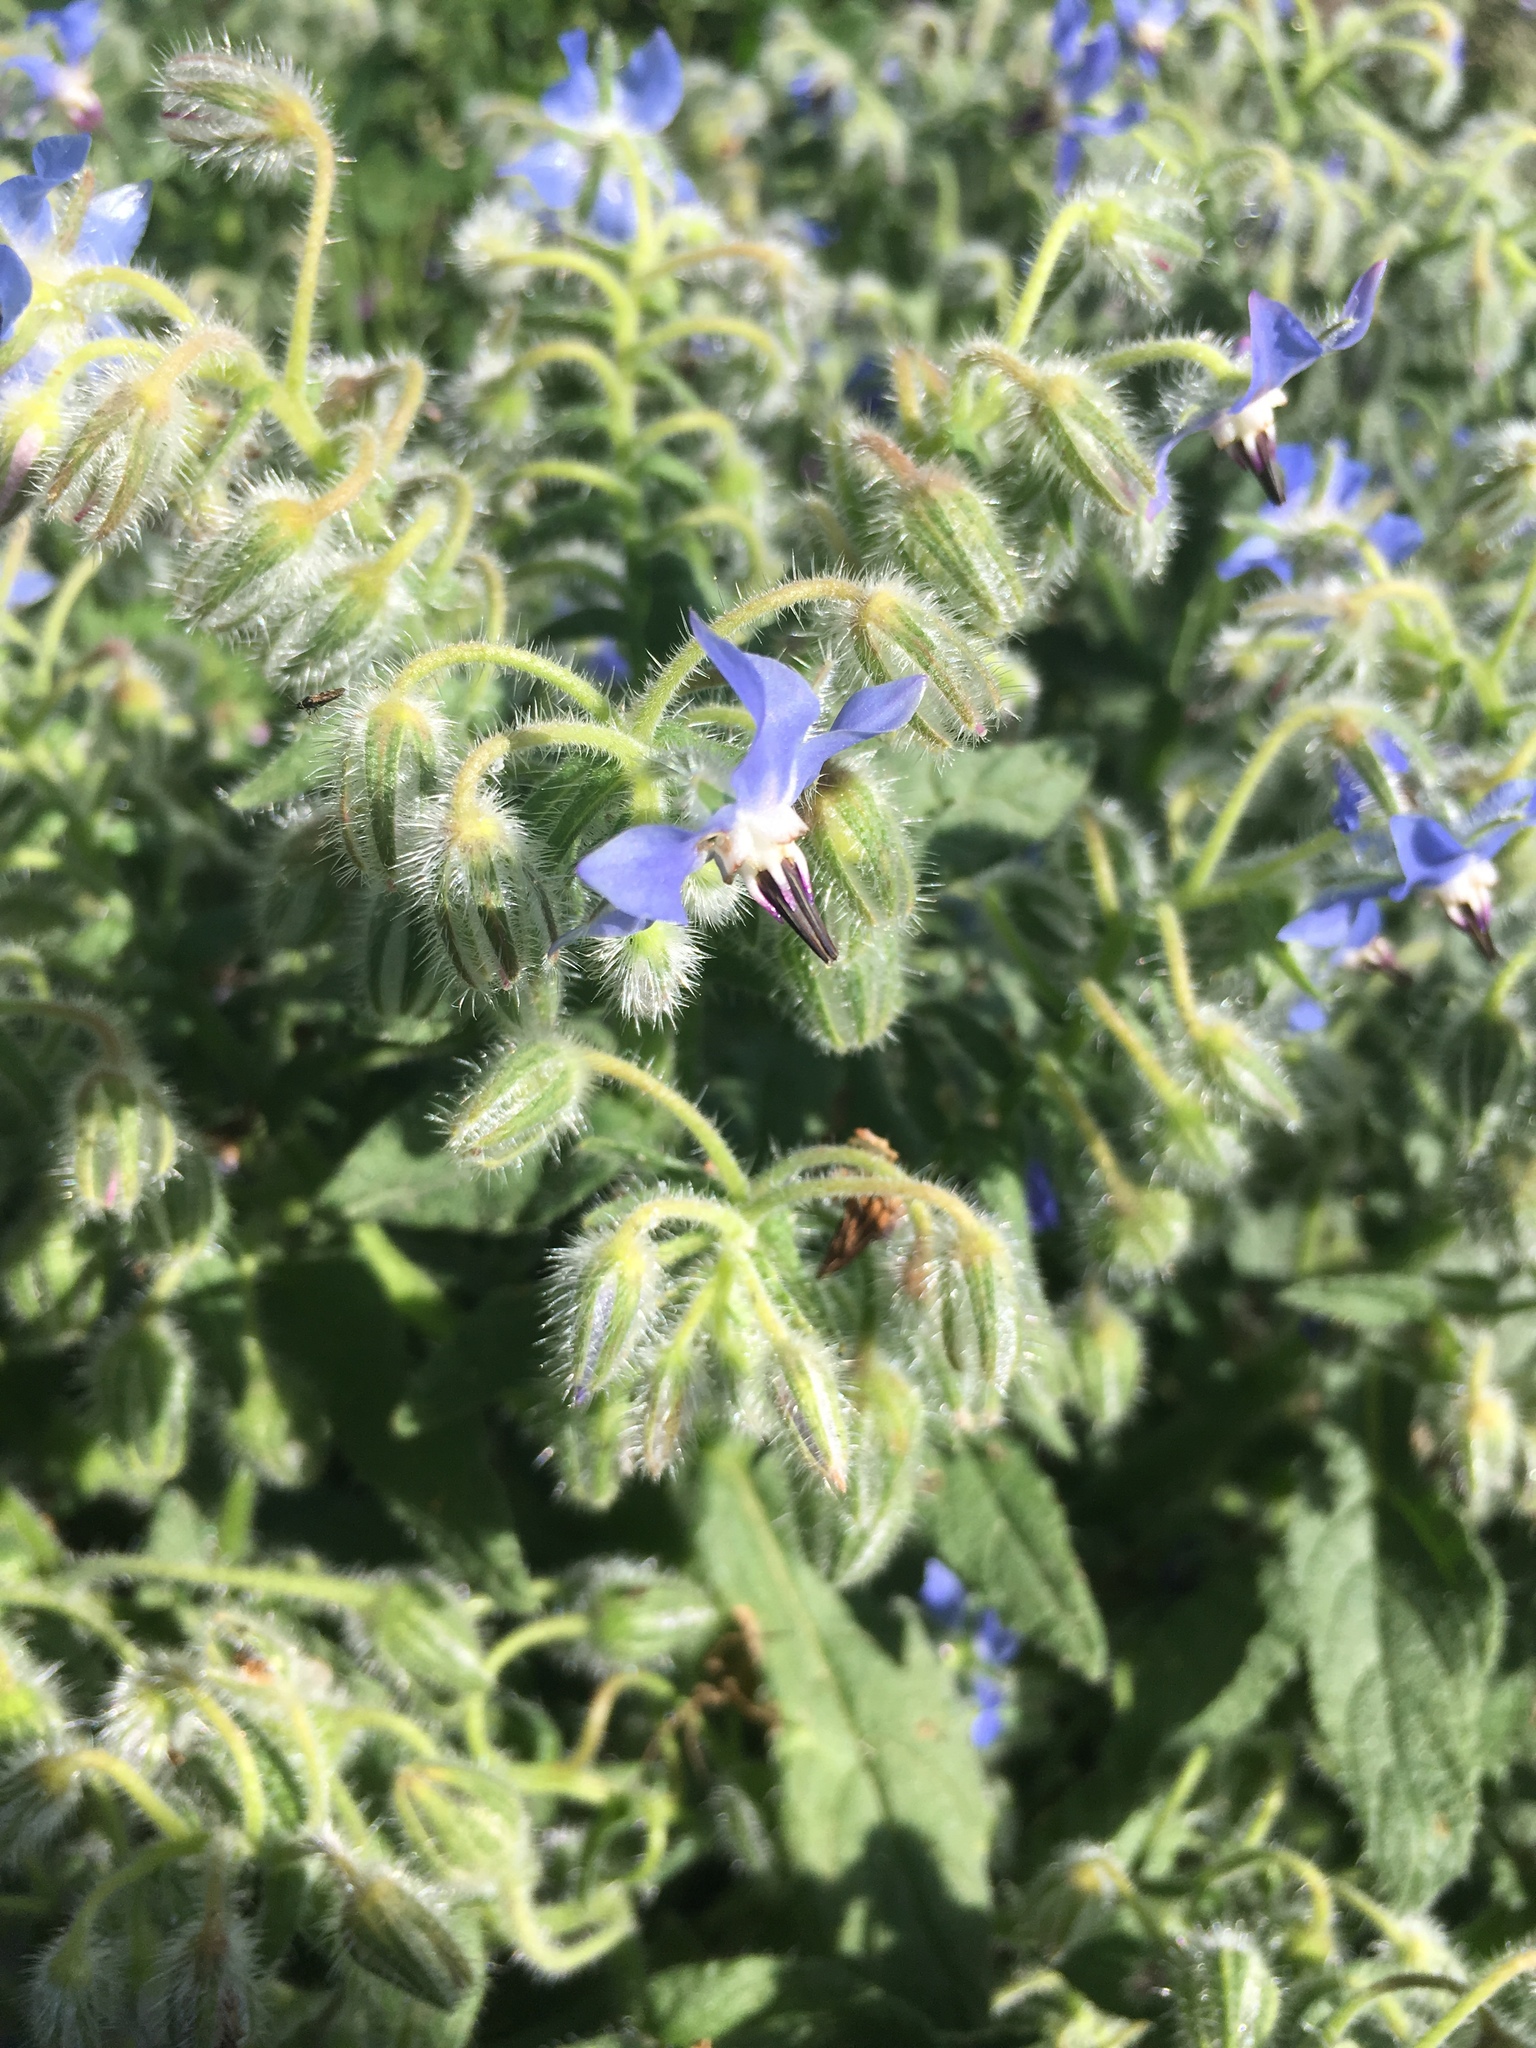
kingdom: Plantae
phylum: Tracheophyta
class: Magnoliopsida
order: Boraginales
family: Boraginaceae
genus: Borago
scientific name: Borago officinalis
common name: Borage
